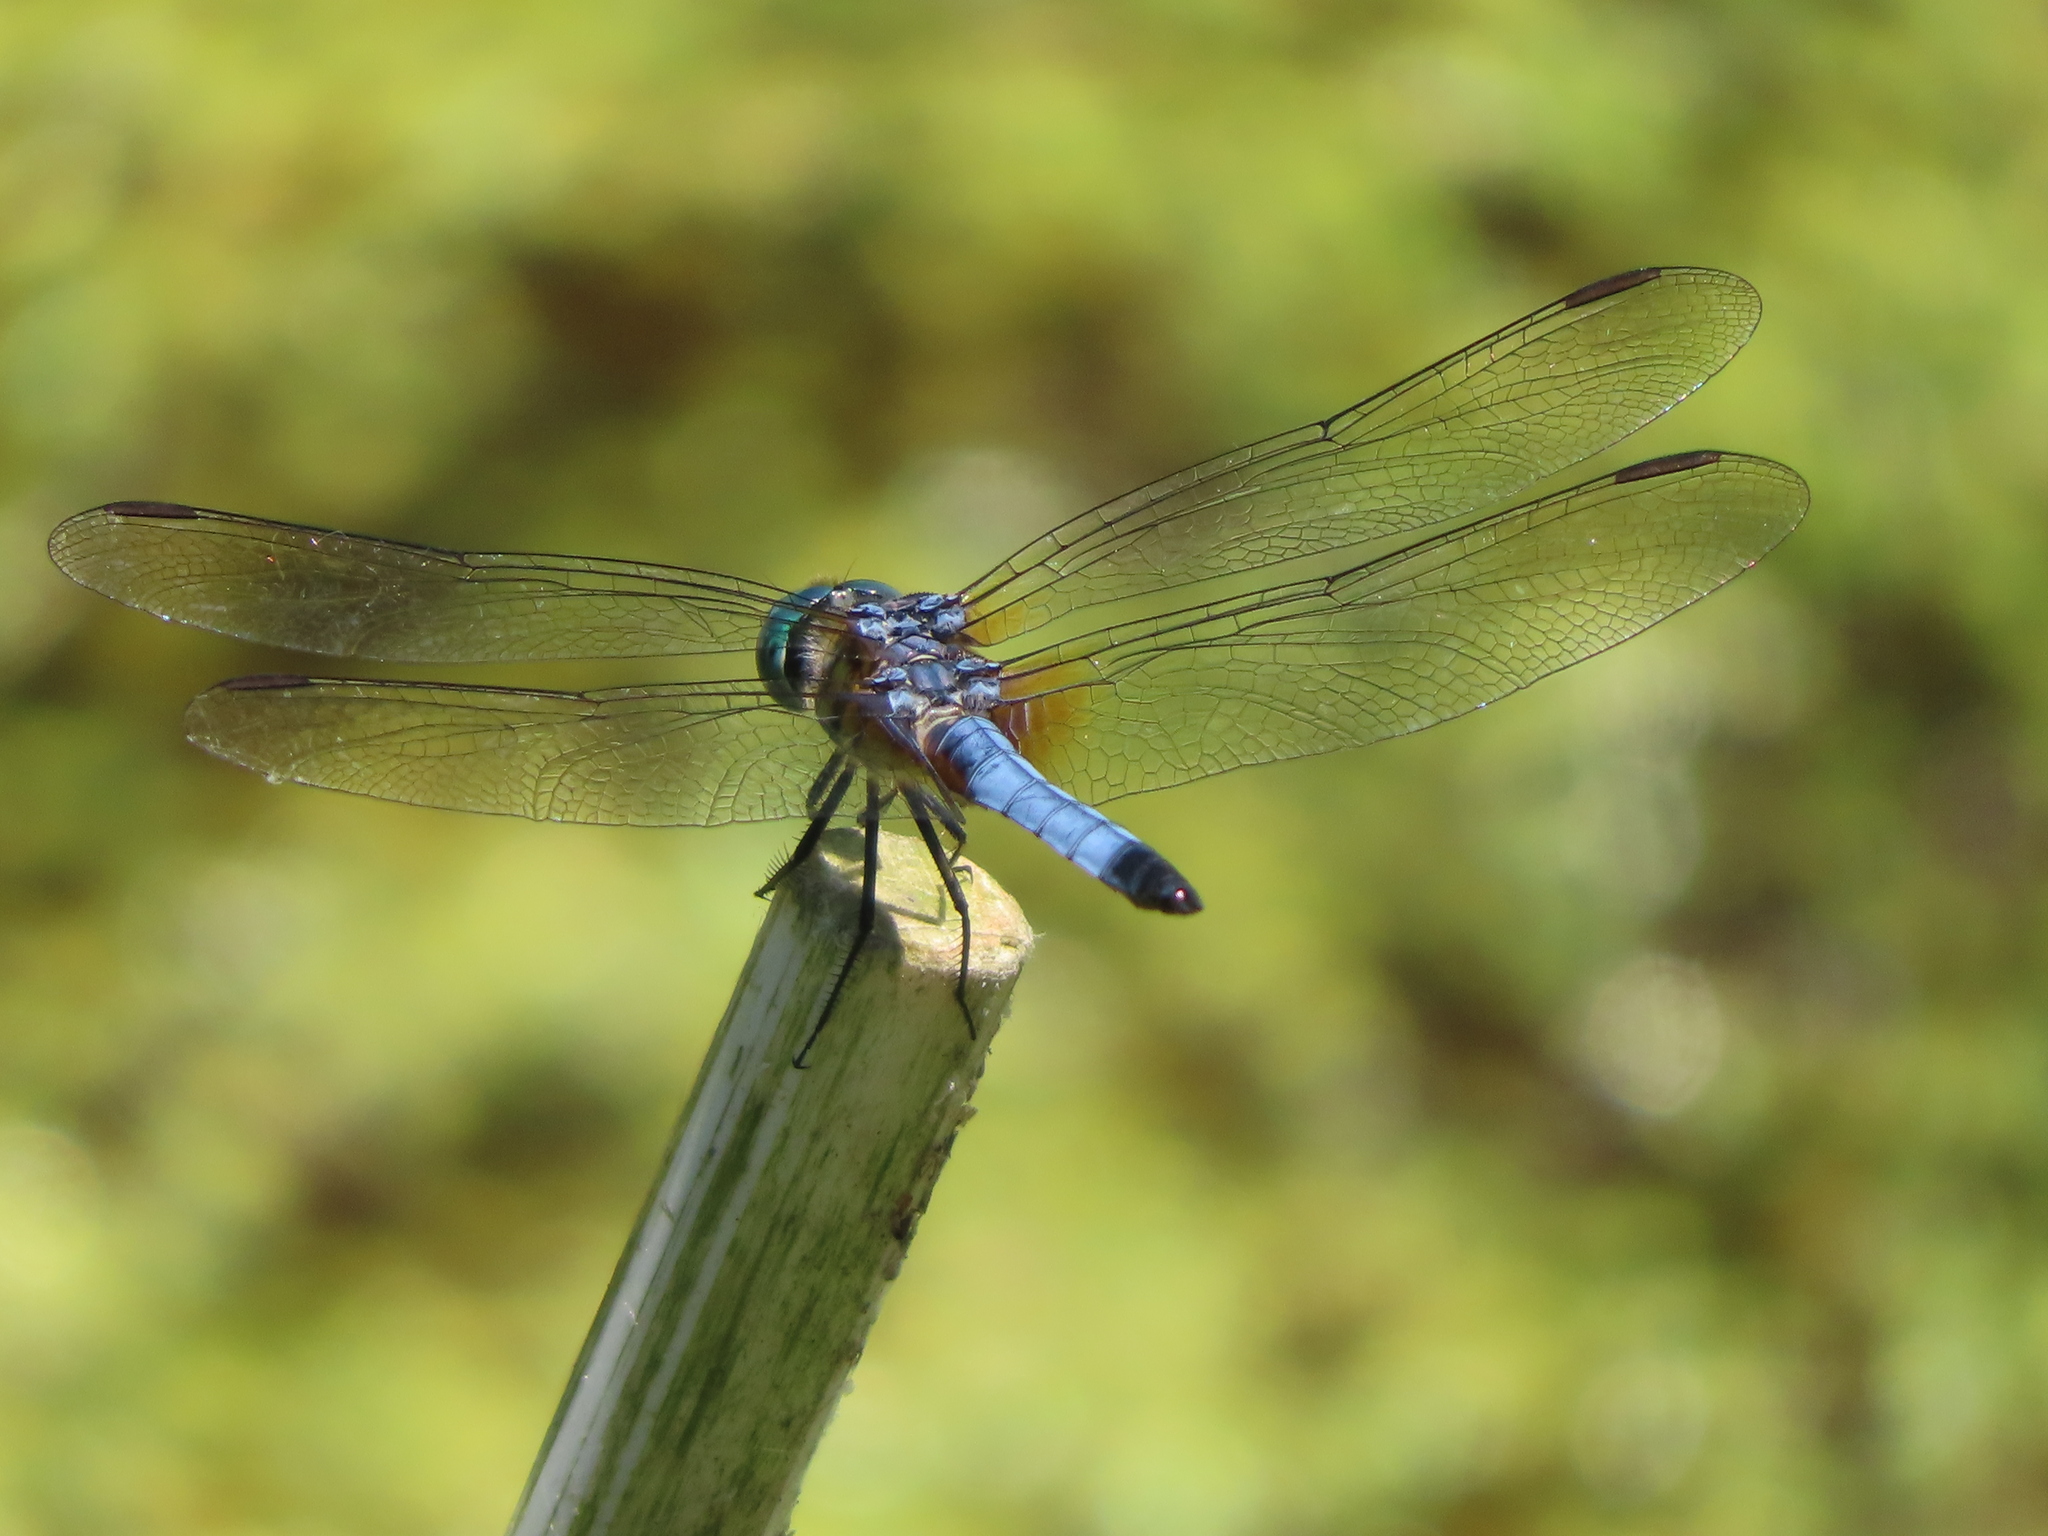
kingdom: Animalia
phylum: Arthropoda
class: Insecta
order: Odonata
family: Libellulidae
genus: Pachydiplax
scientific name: Pachydiplax longipennis
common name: Blue dasher
